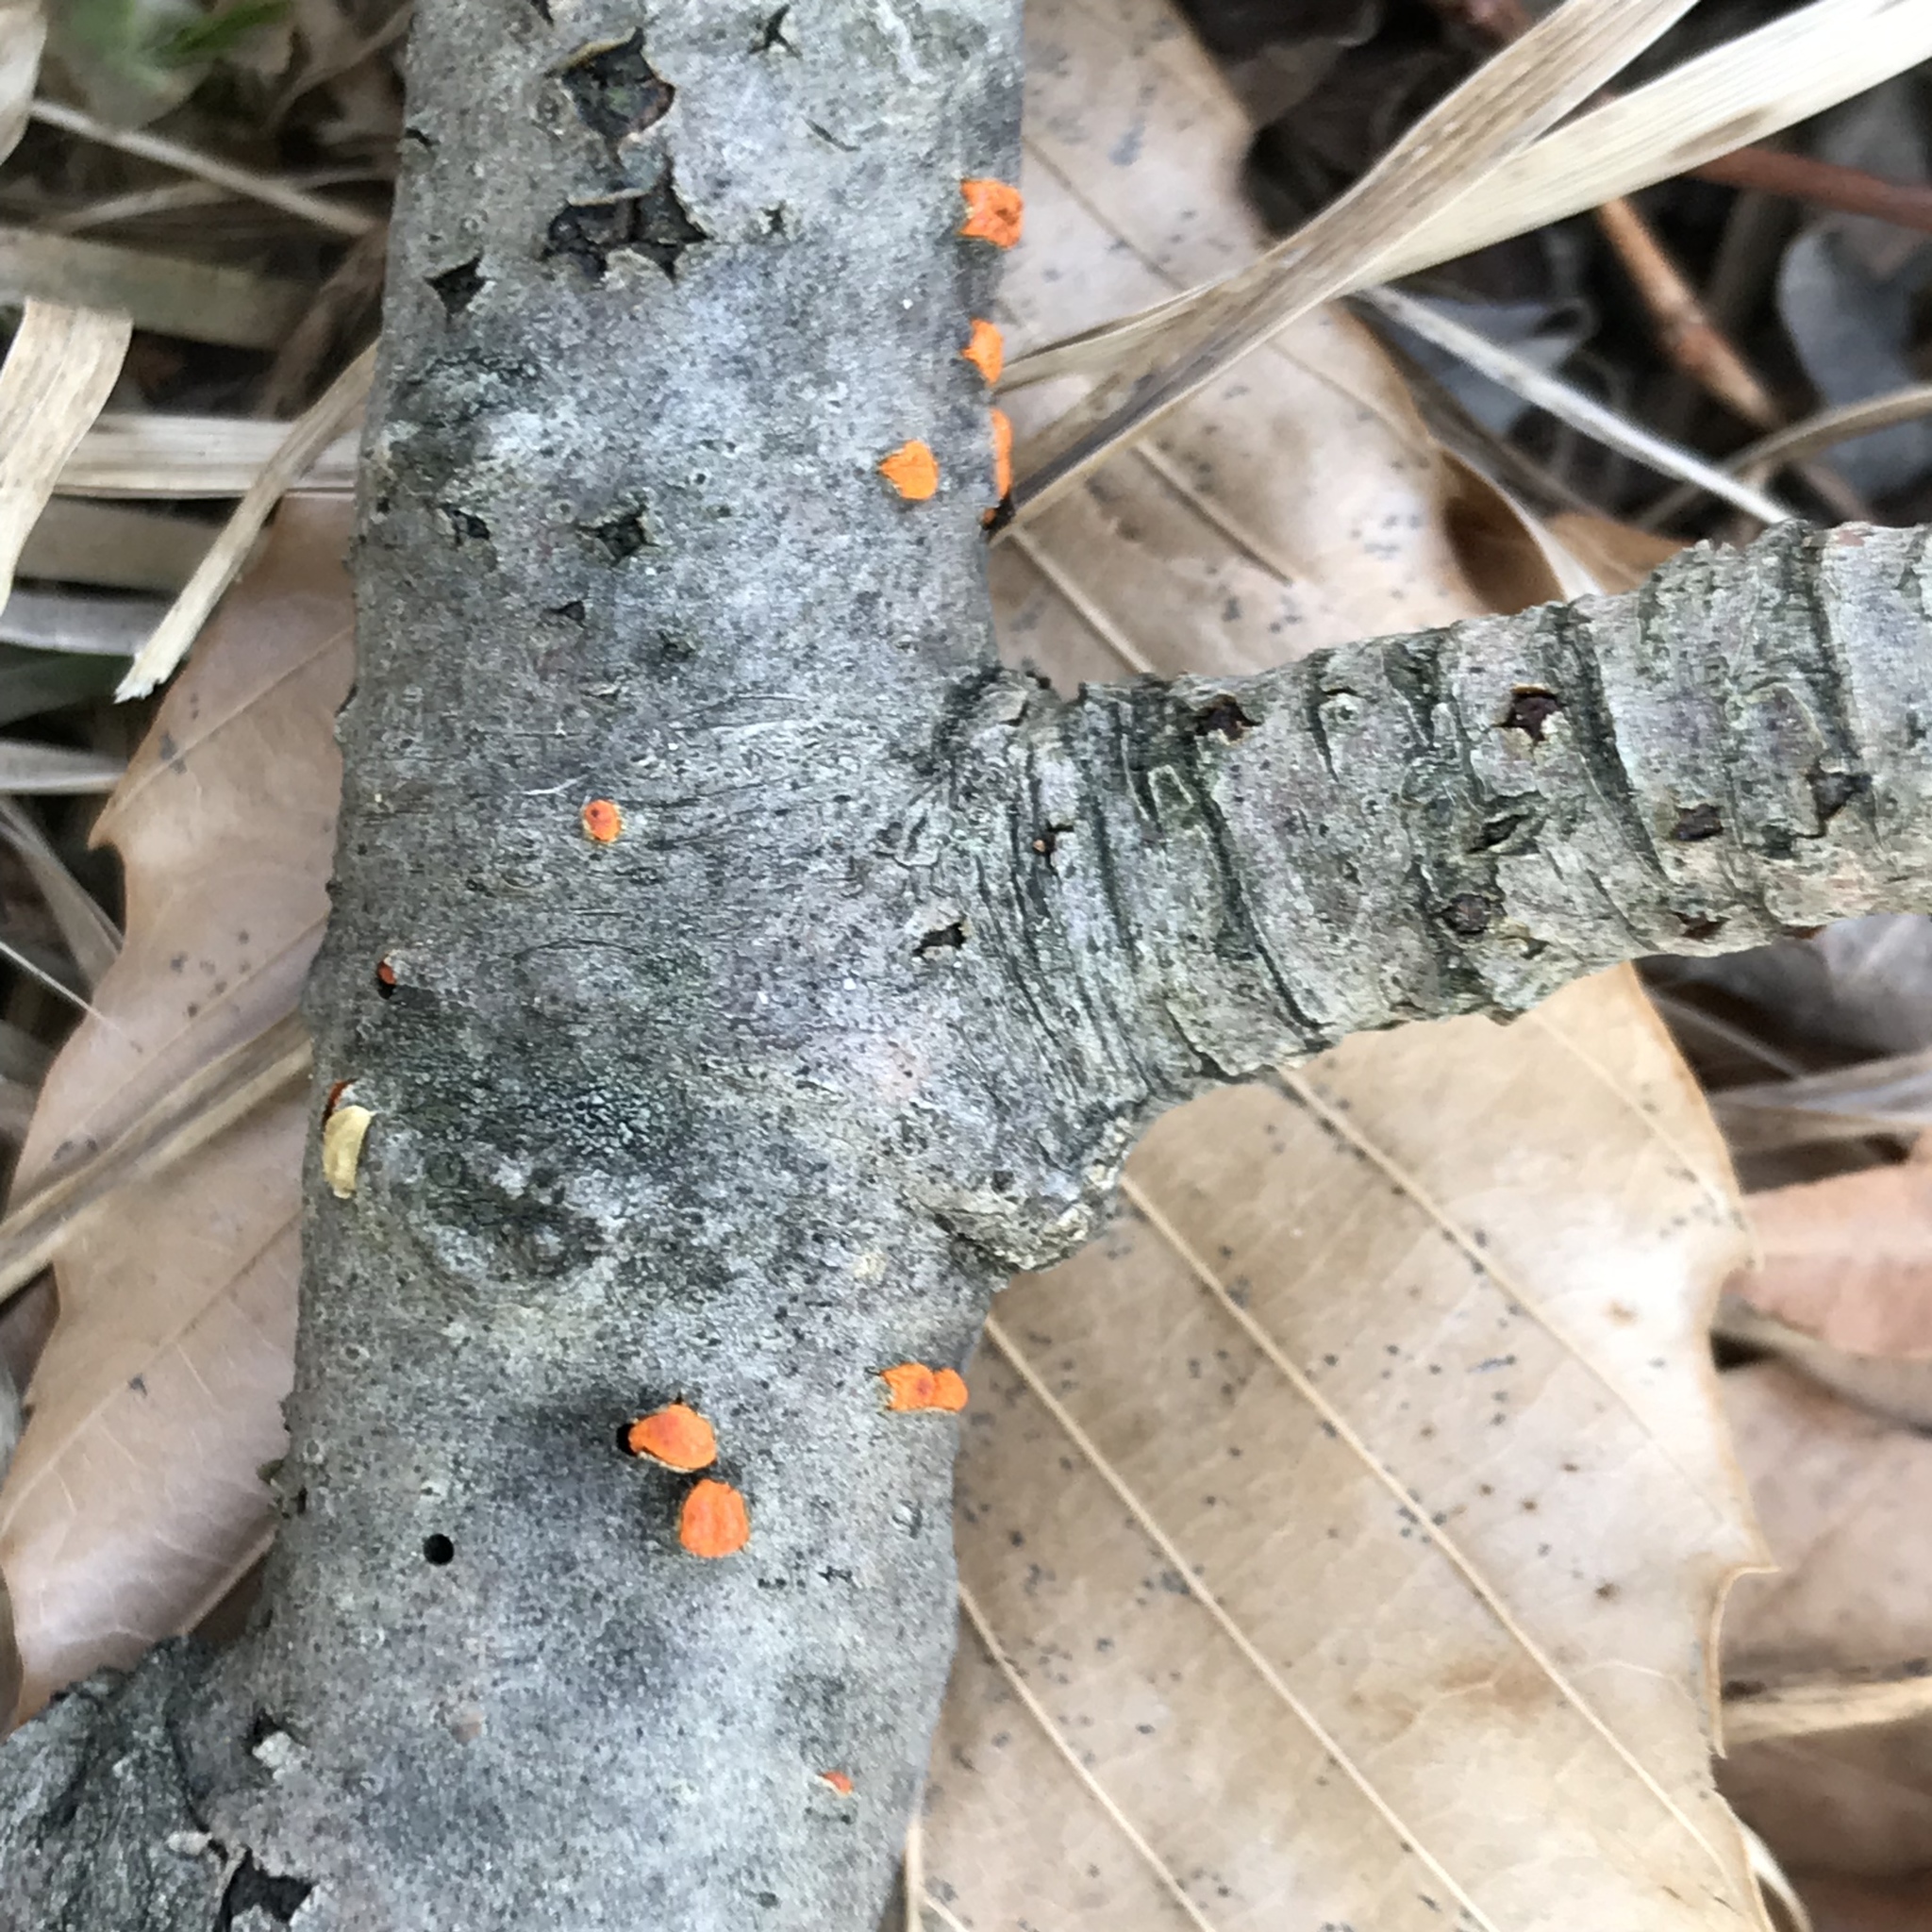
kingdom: Fungi
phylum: Ascomycota
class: Sordariomycetes
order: Diaporthales
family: Cryphonectriaceae
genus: Amphilogia
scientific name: Amphilogia gyrosa
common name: Orange hobnail canker
